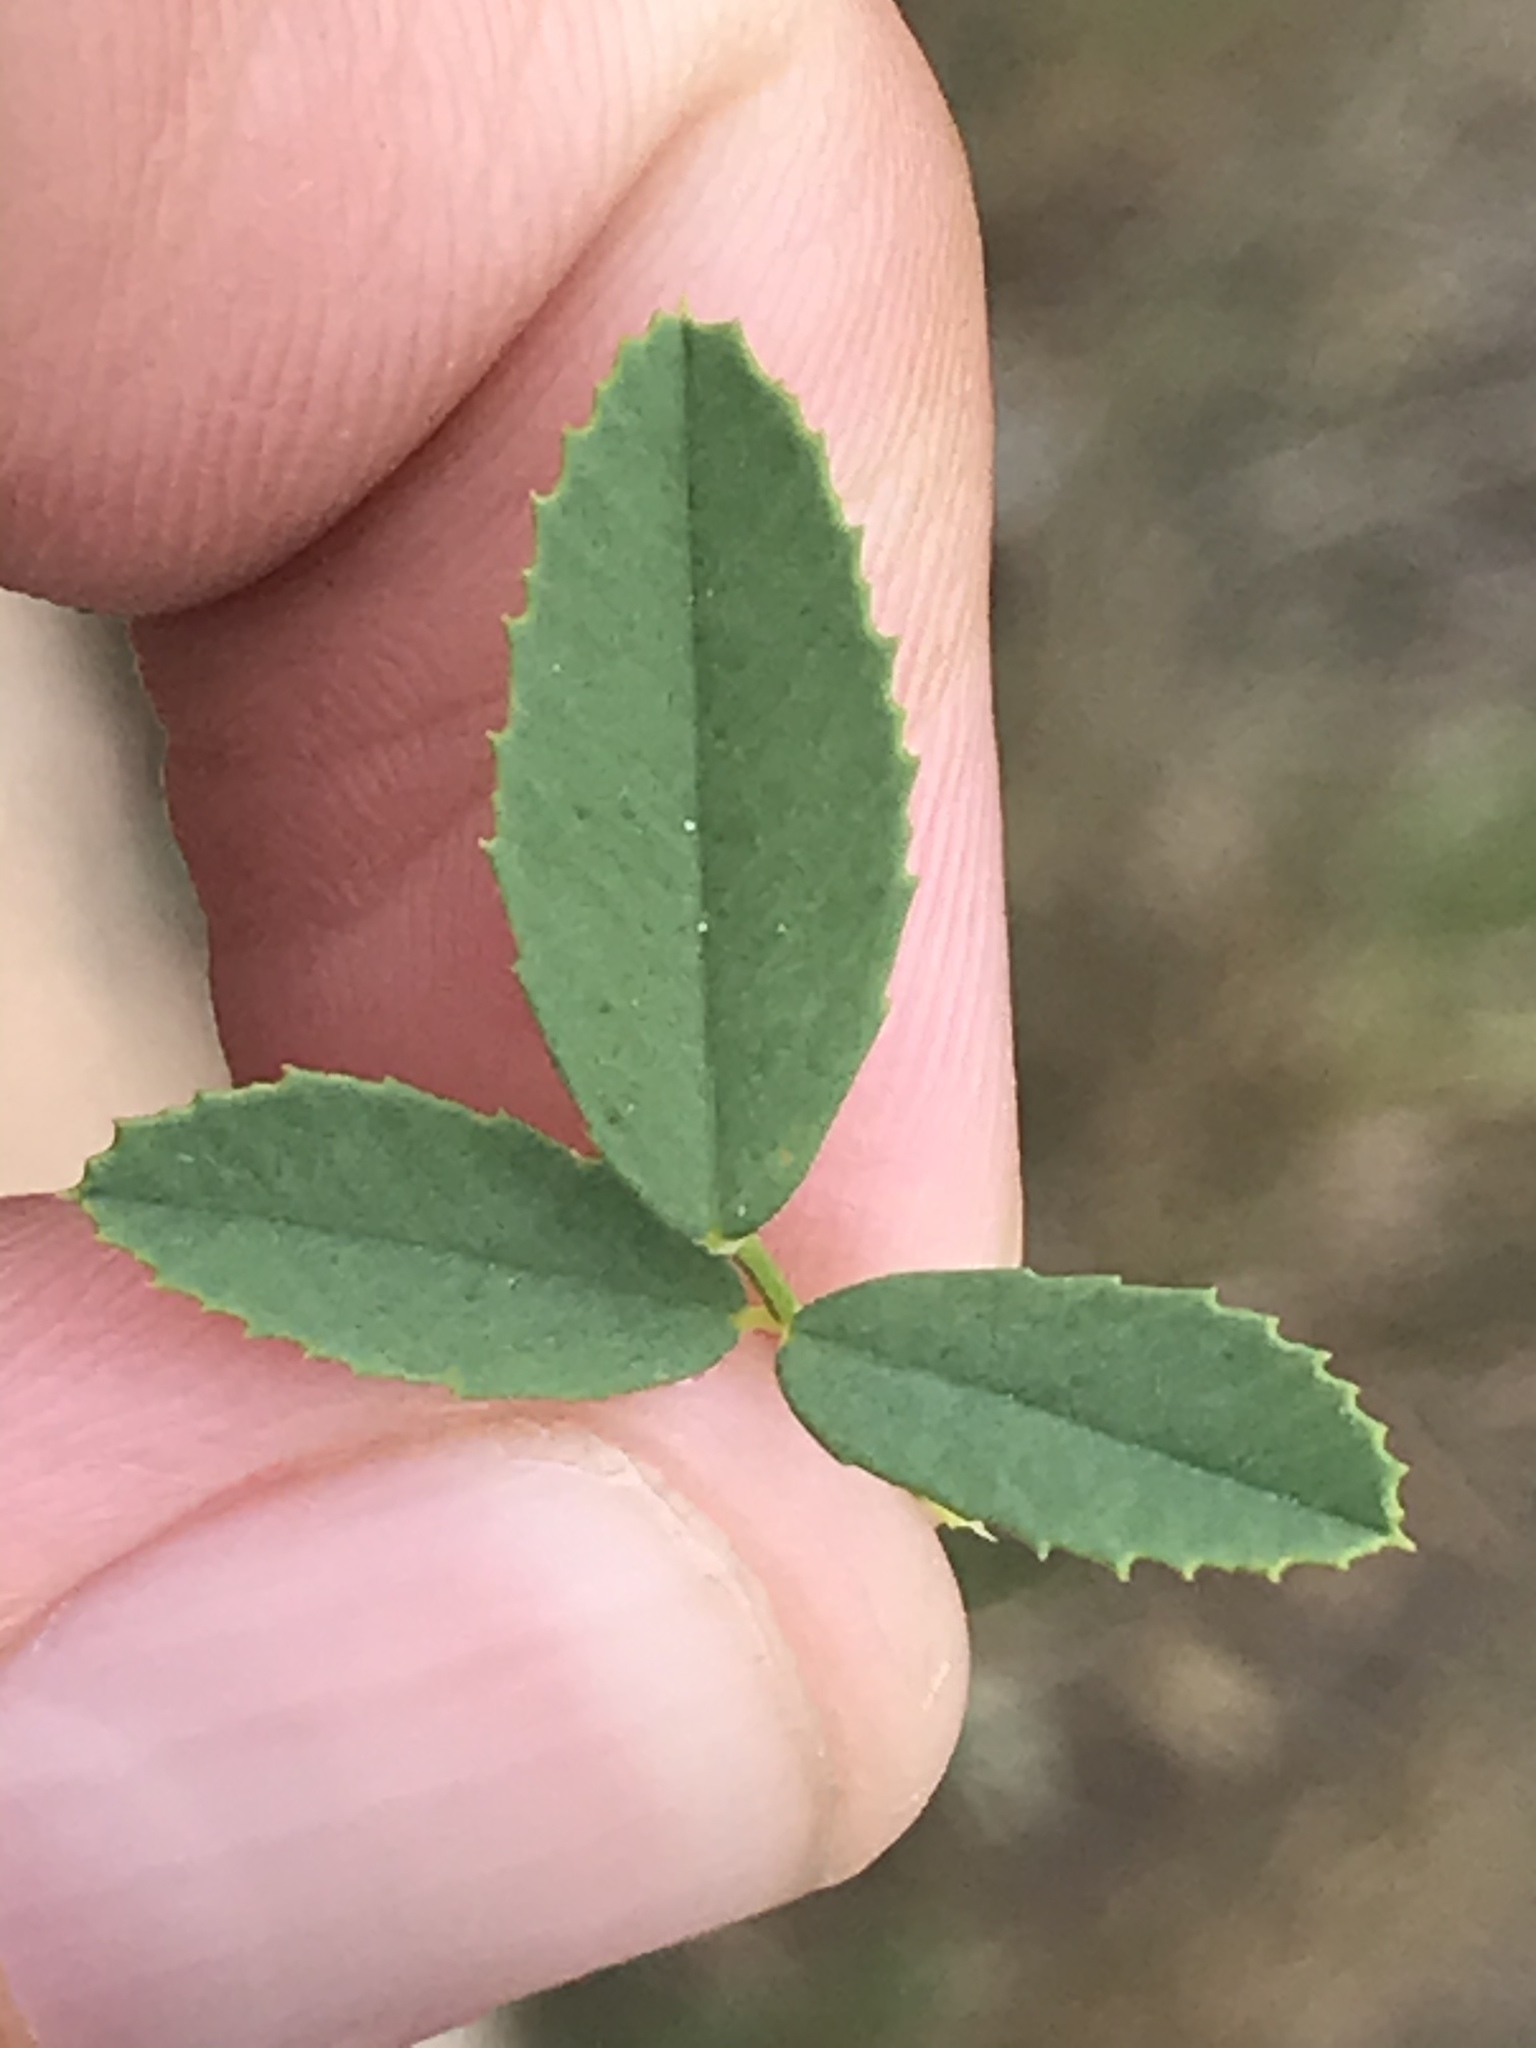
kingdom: Plantae
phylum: Tracheophyta
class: Magnoliopsida
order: Fabales
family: Fabaceae
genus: Melilotus
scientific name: Melilotus officinalis
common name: Sweetclover
